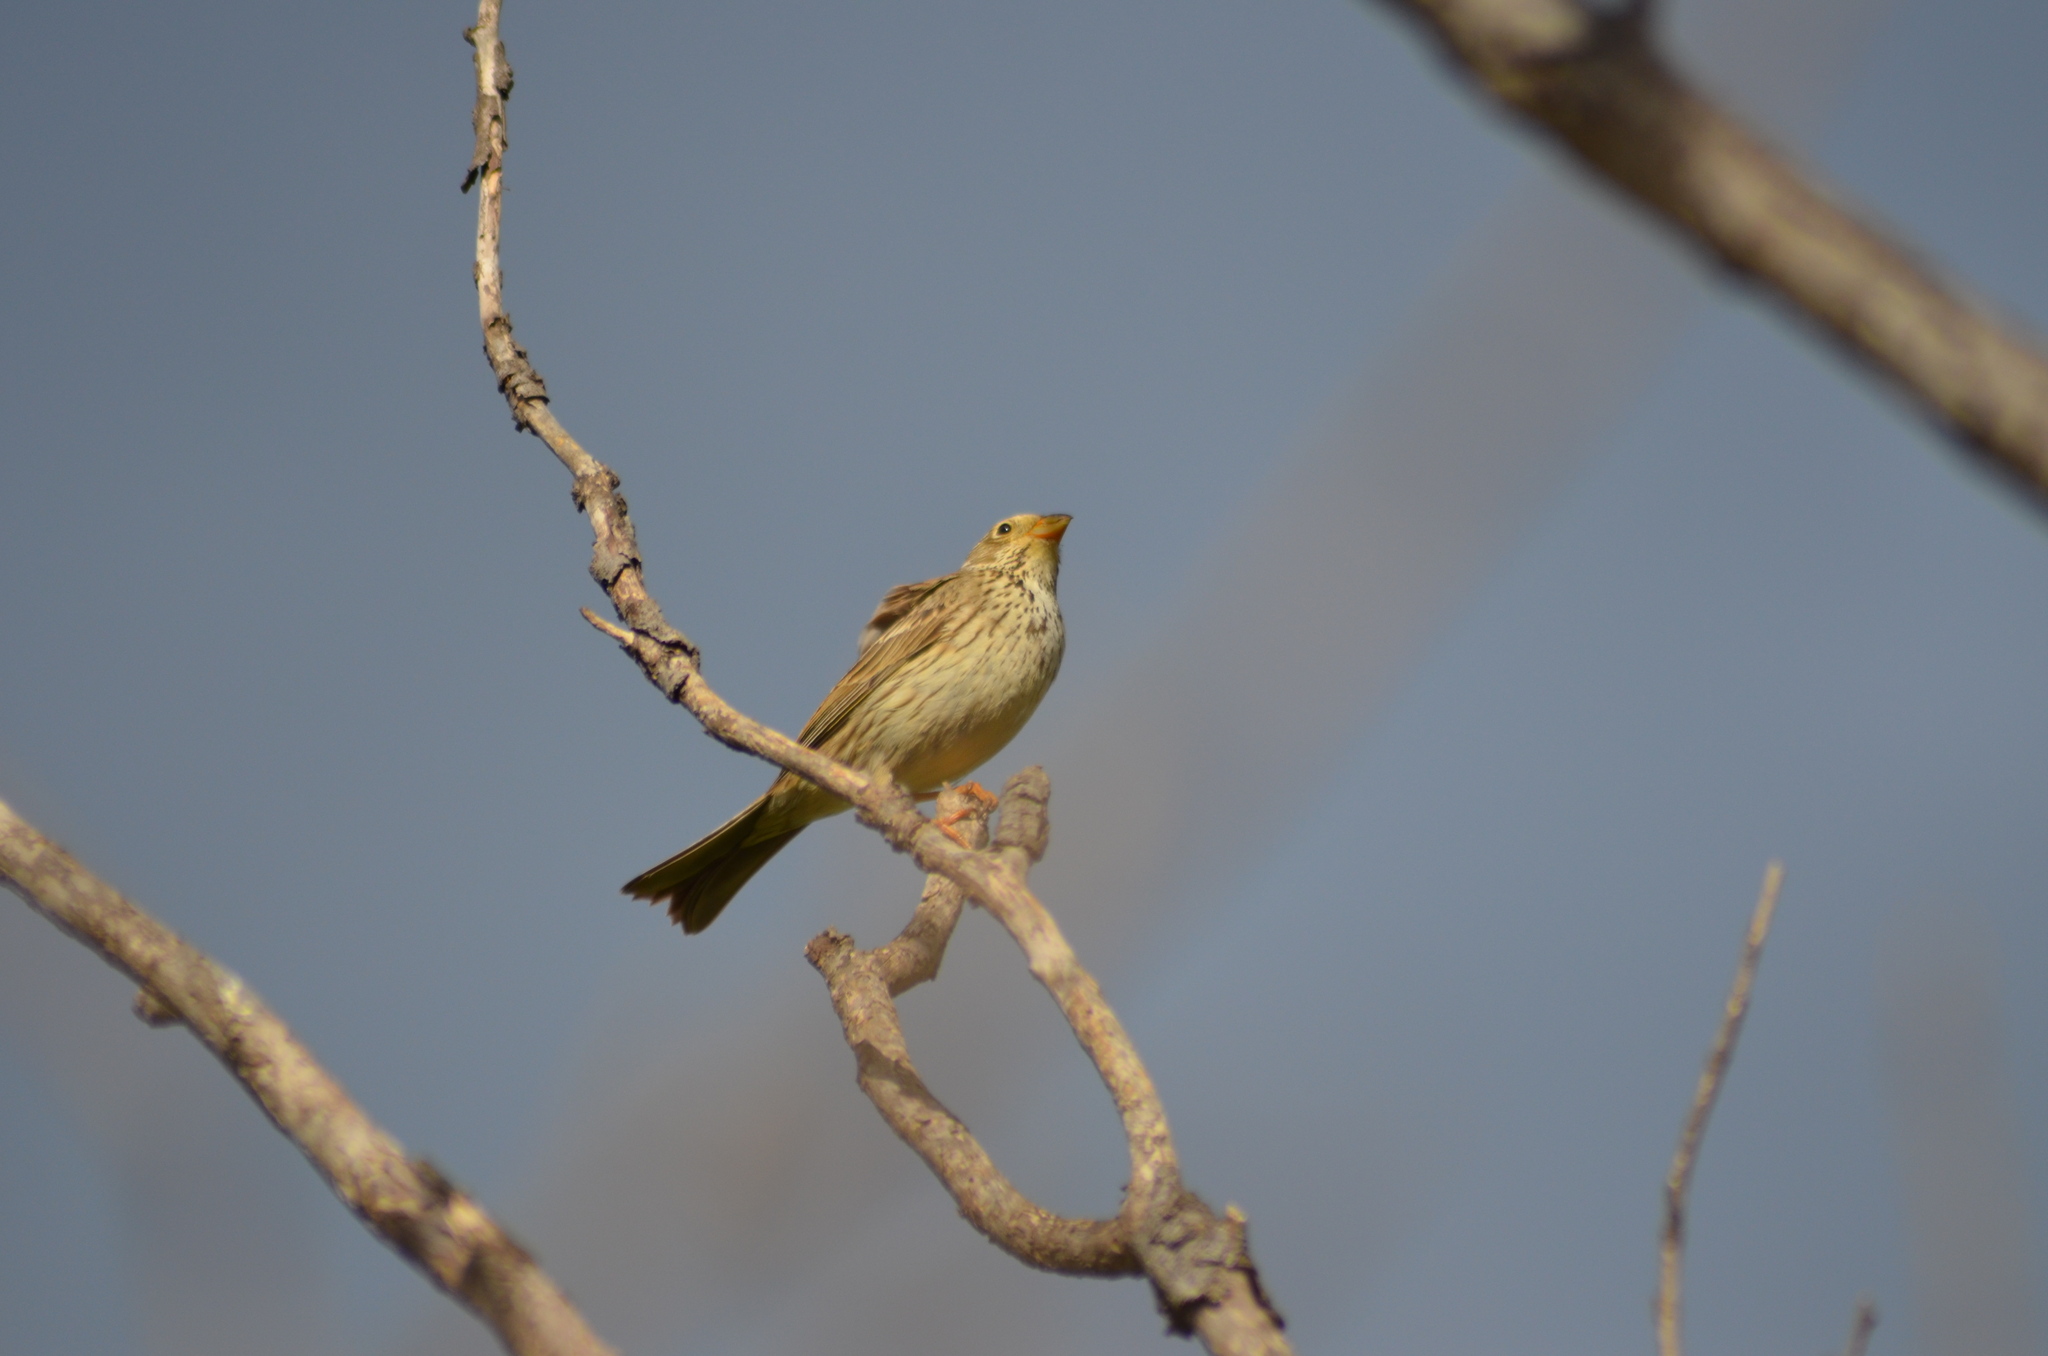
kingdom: Animalia
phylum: Chordata
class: Aves
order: Passeriformes
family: Emberizidae
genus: Emberiza
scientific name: Emberiza calandra
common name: Corn bunting
